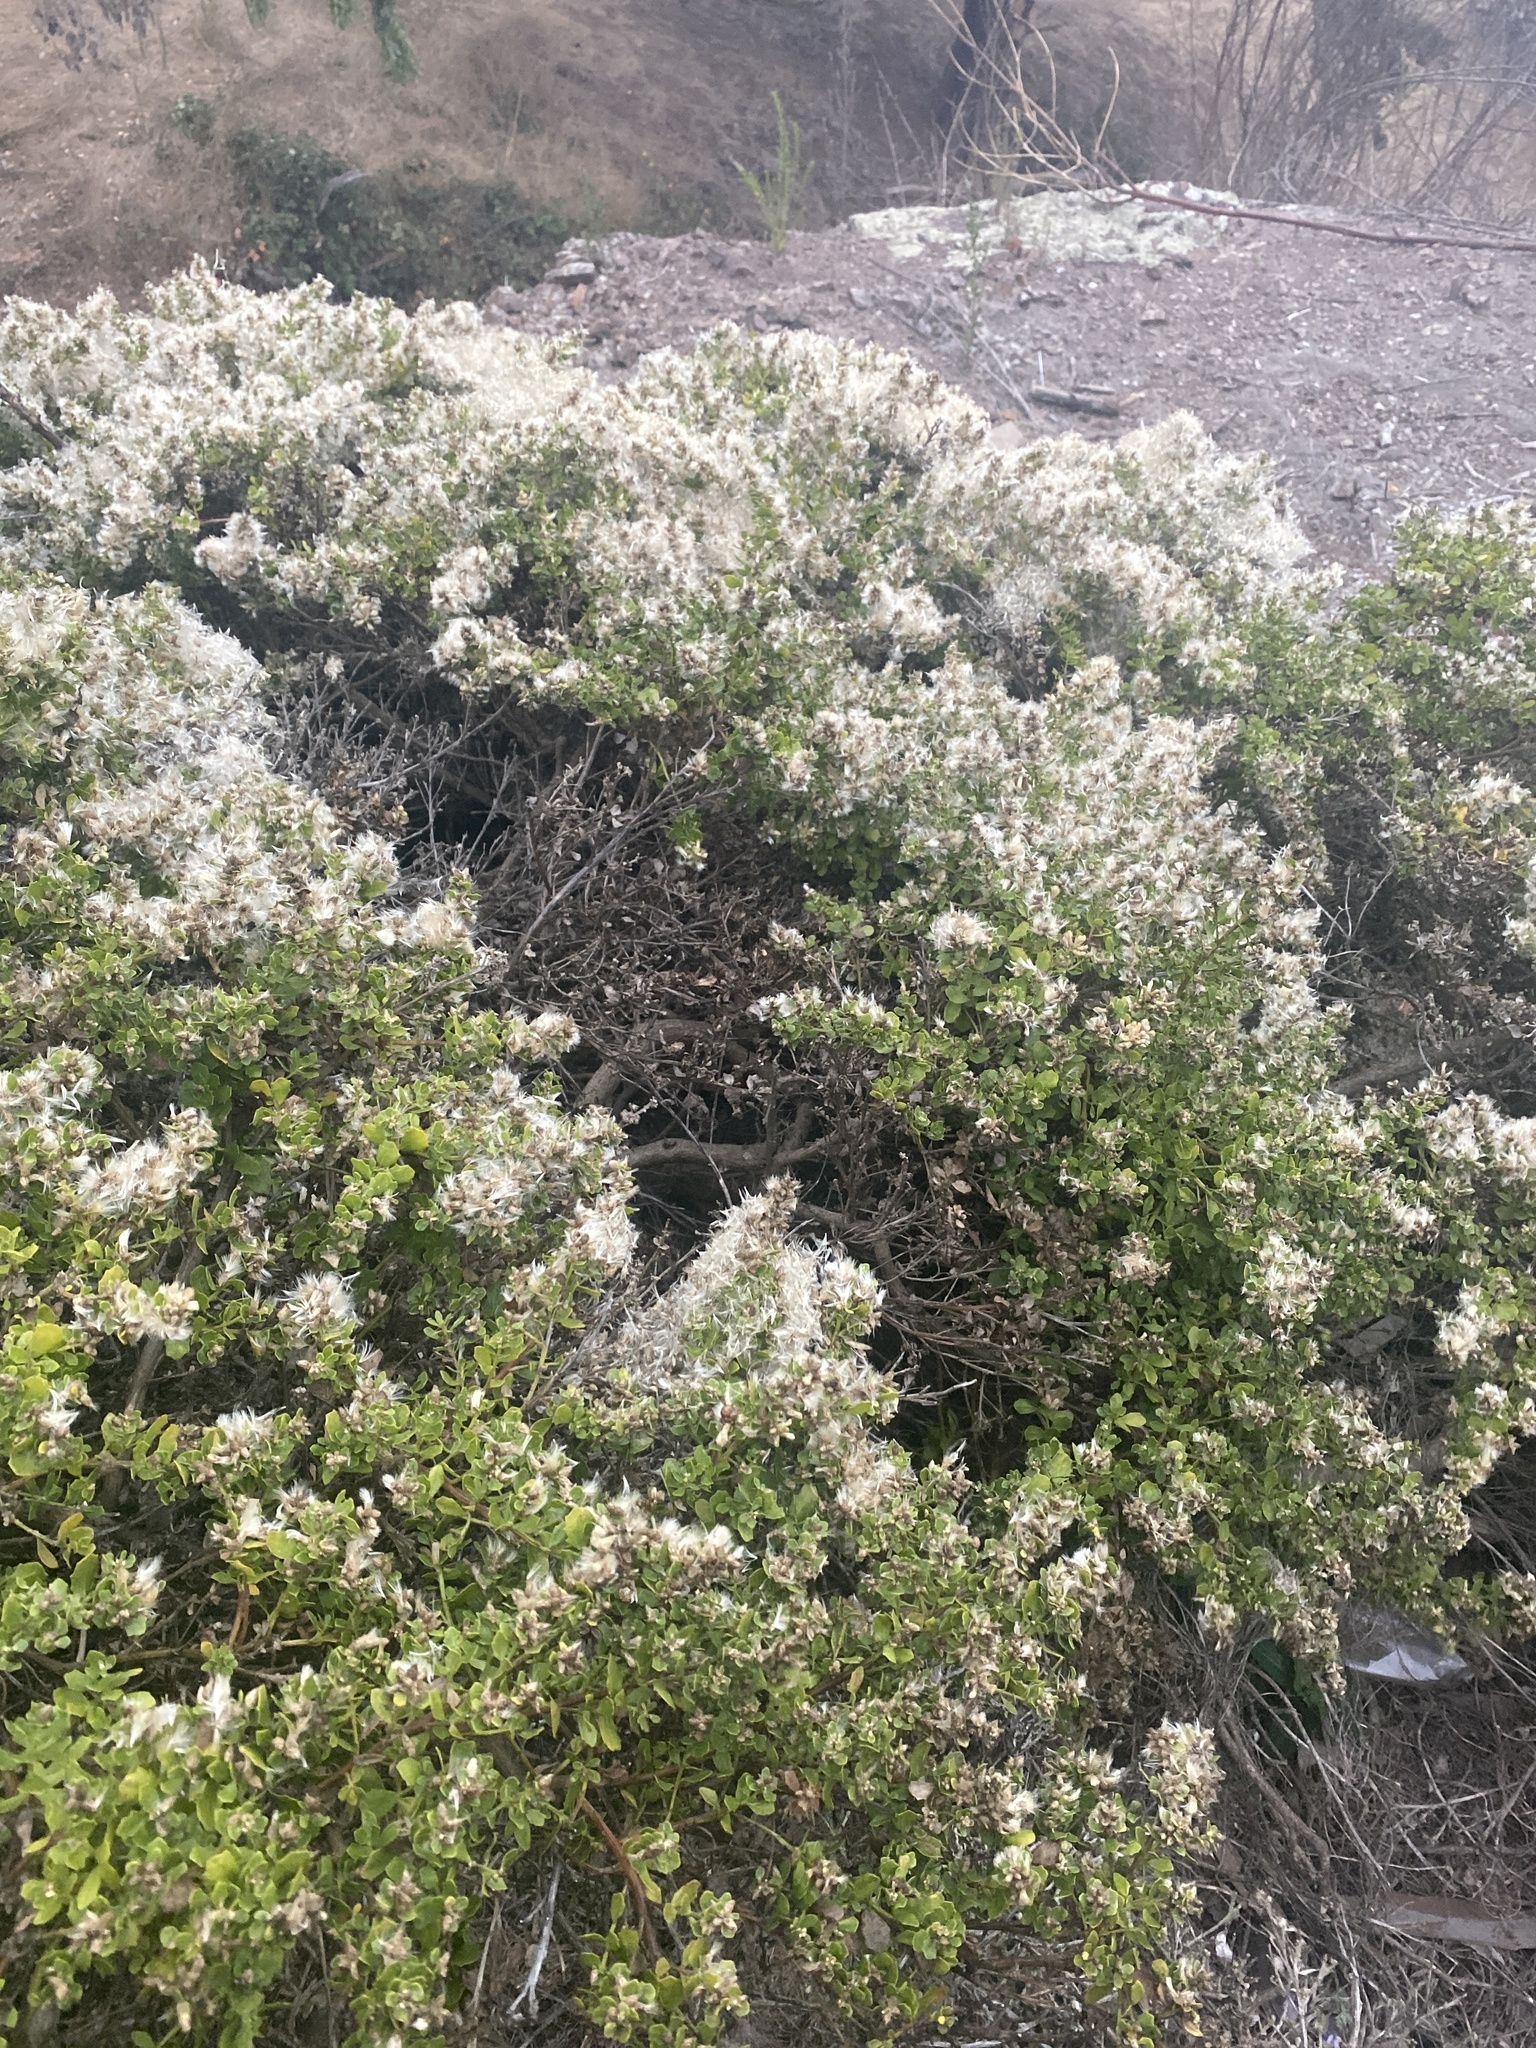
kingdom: Plantae
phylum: Tracheophyta
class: Magnoliopsida
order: Asterales
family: Asteraceae
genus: Baccharis
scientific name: Baccharis pilularis
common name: Coyotebrush
